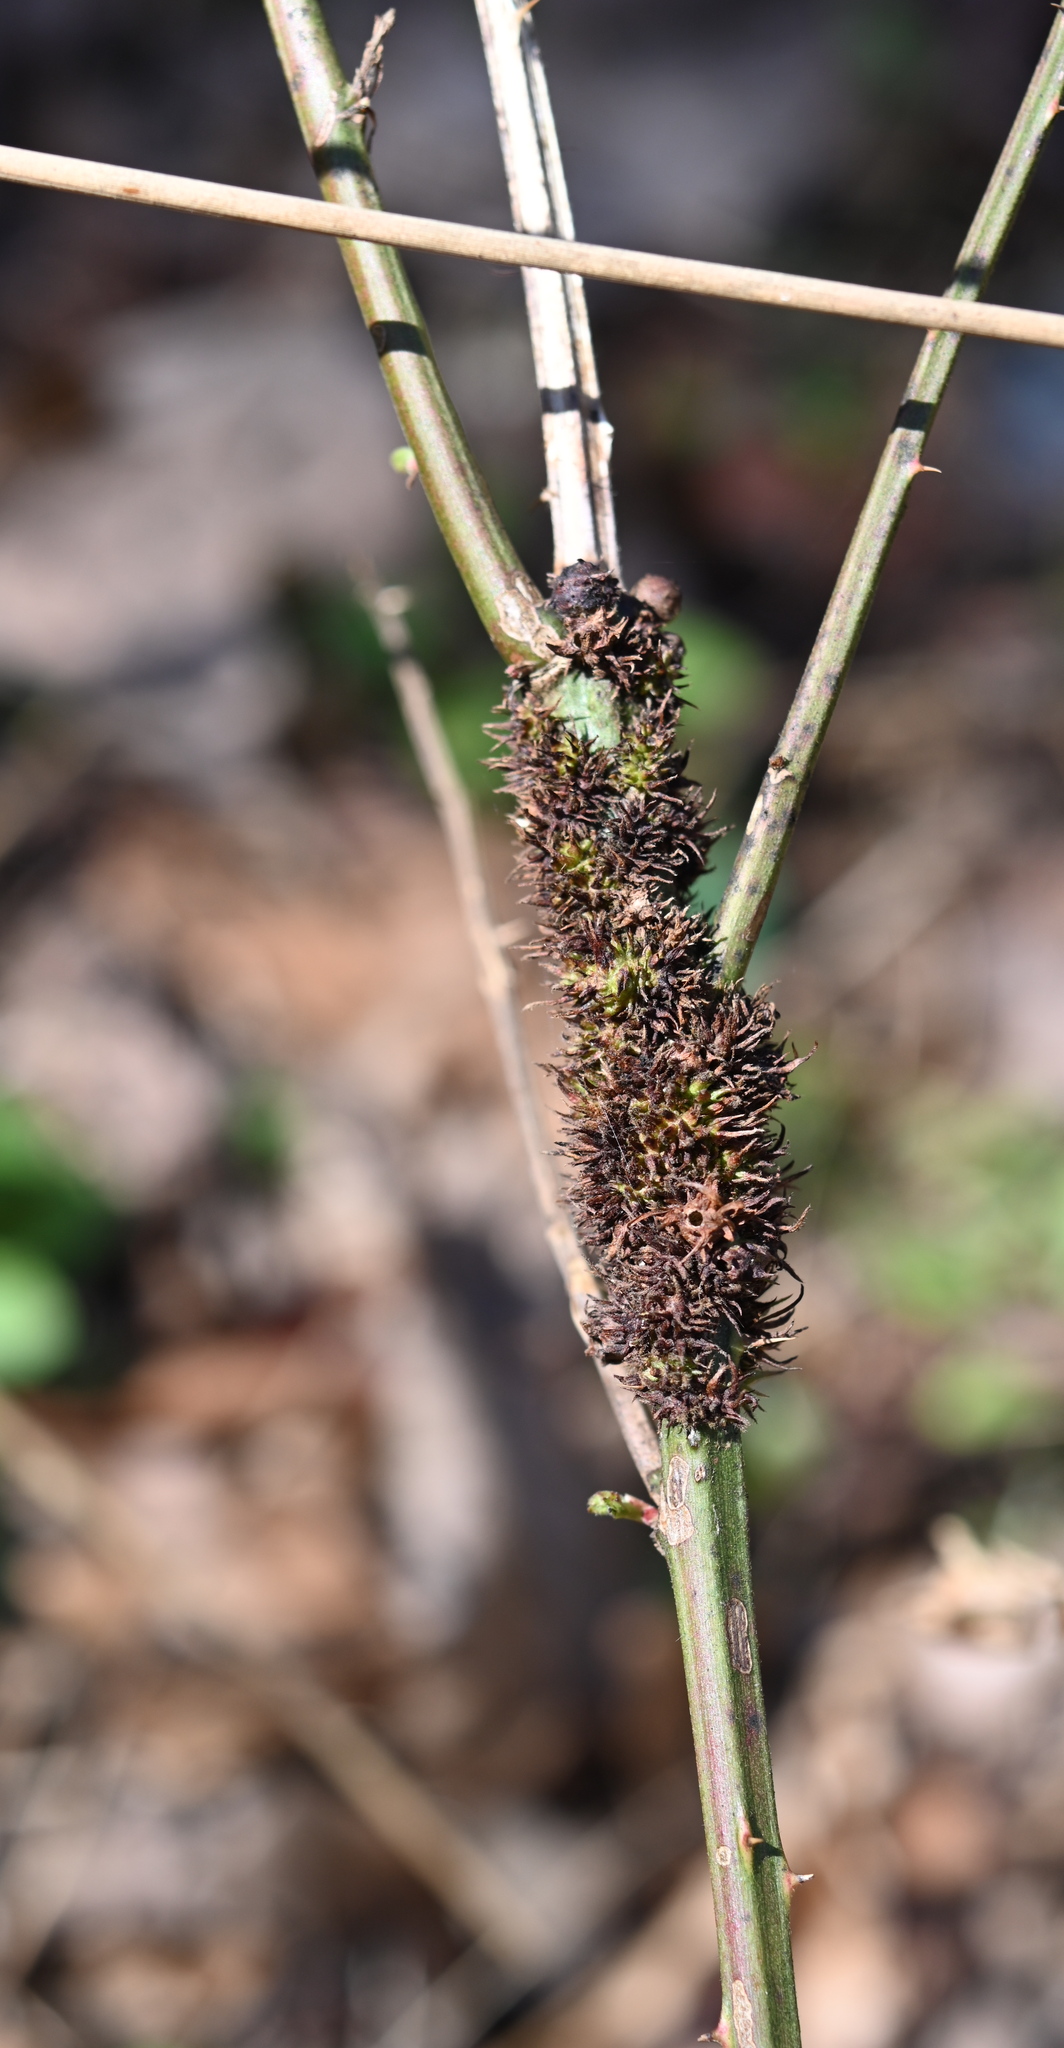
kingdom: Animalia
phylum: Arthropoda
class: Insecta
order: Hymenoptera
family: Cynipidae
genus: Diastrophus
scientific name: Diastrophus
